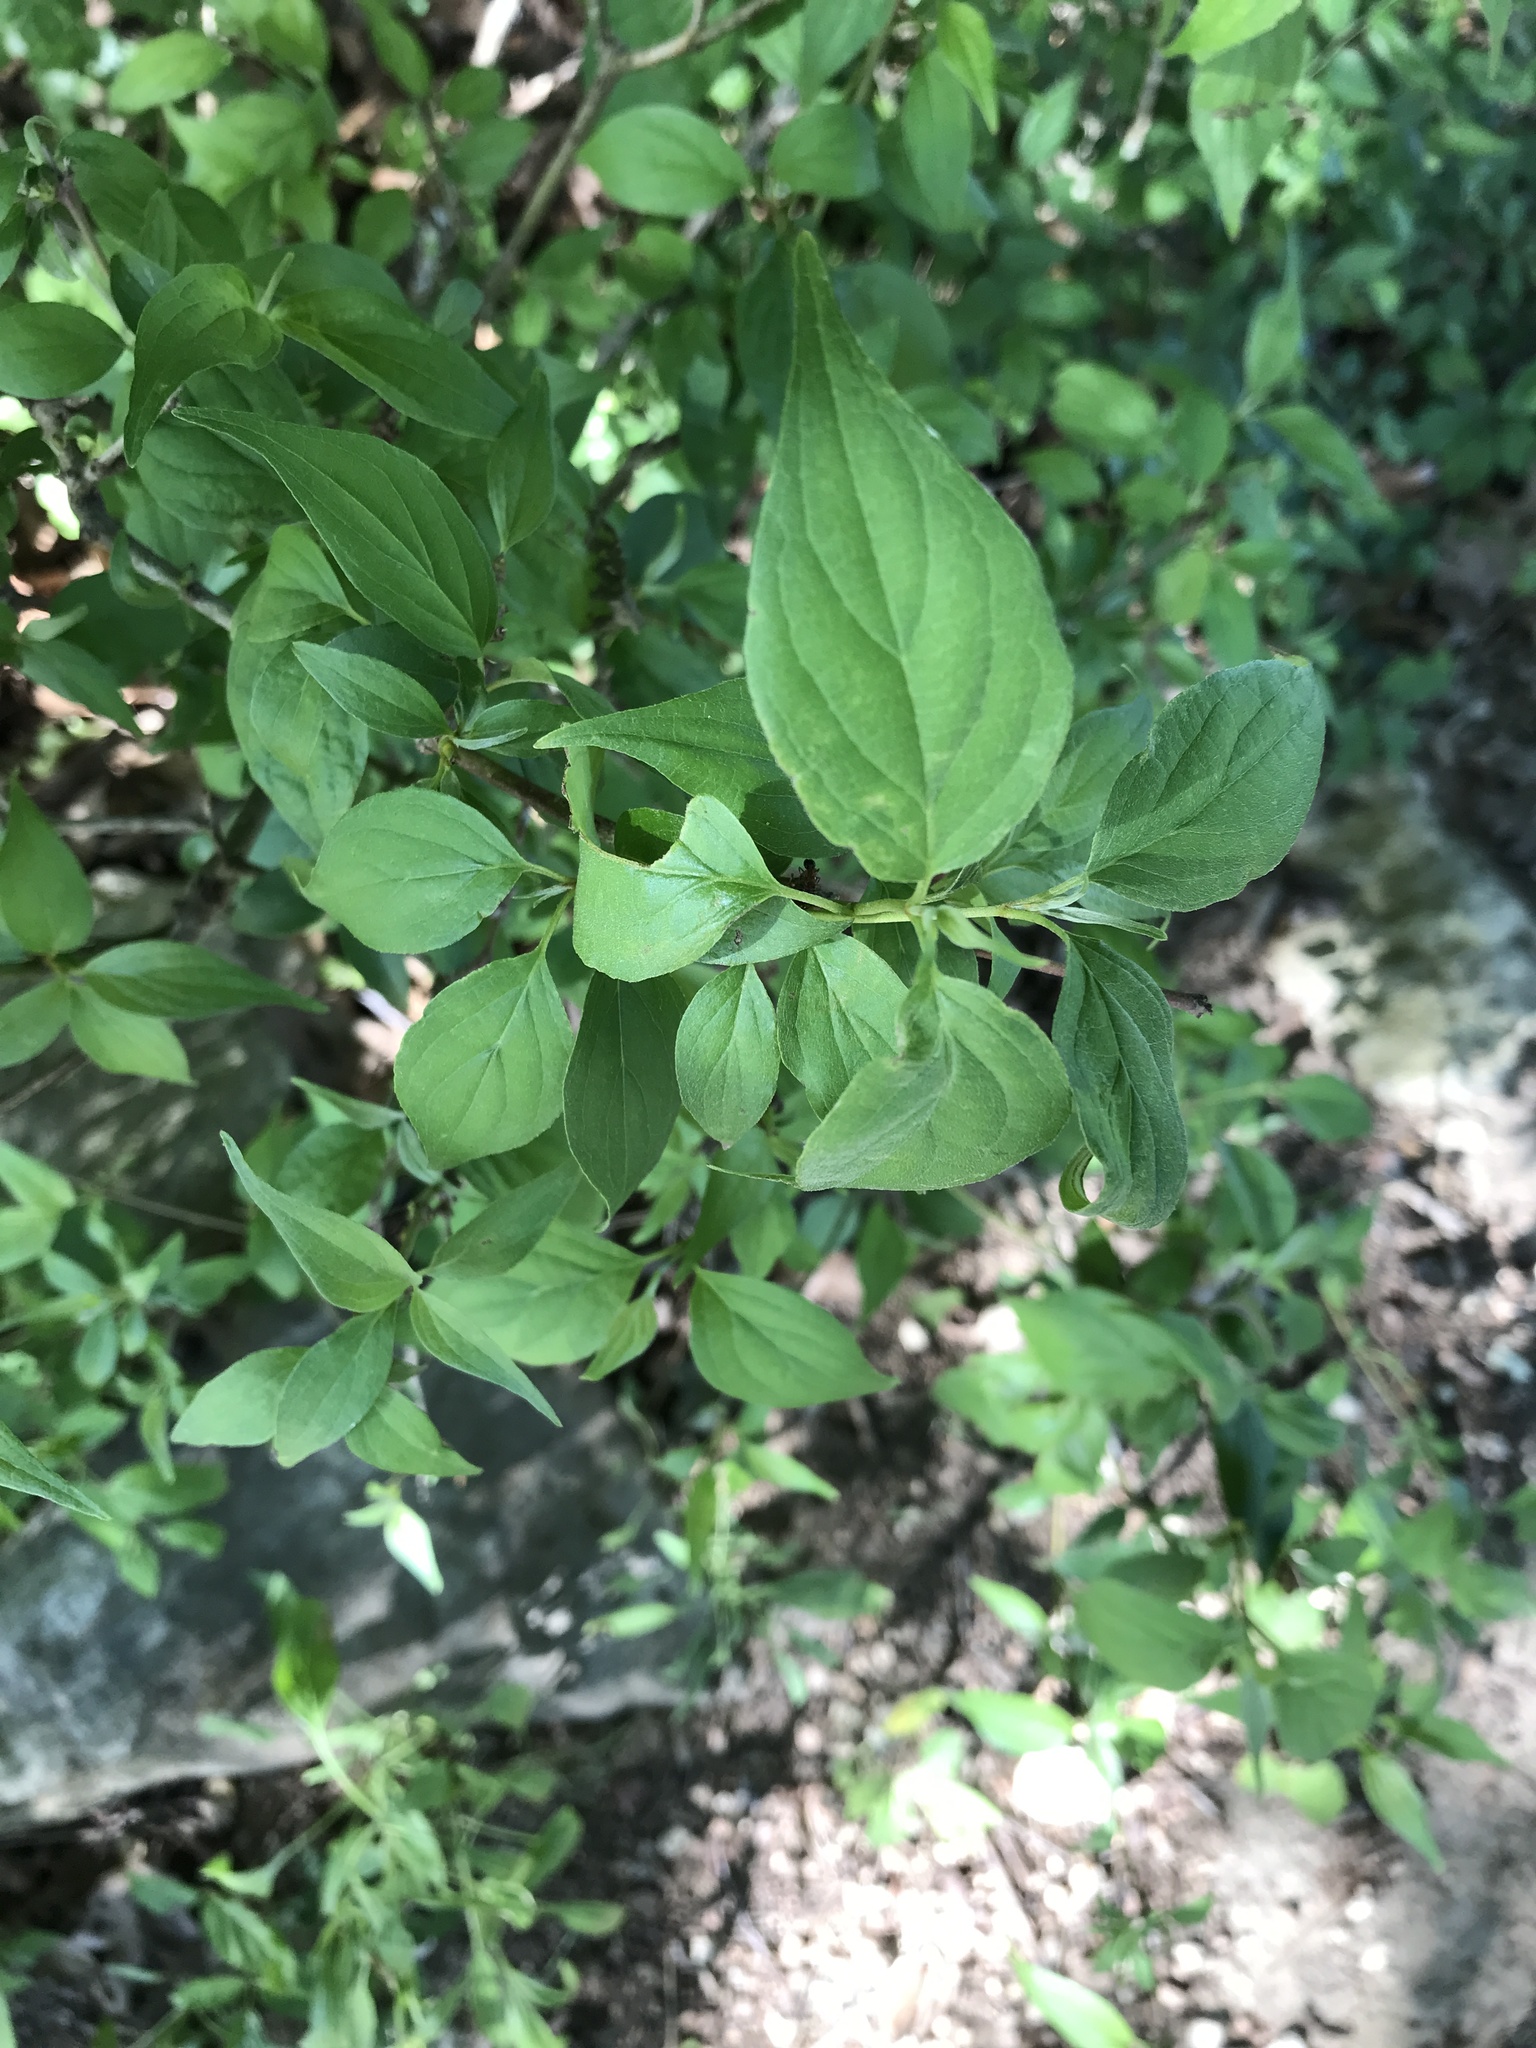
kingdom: Plantae
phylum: Tracheophyta
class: Magnoliopsida
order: Cornales
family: Cornaceae
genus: Cornus
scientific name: Cornus drummondii
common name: Rough-leaf dogwood
